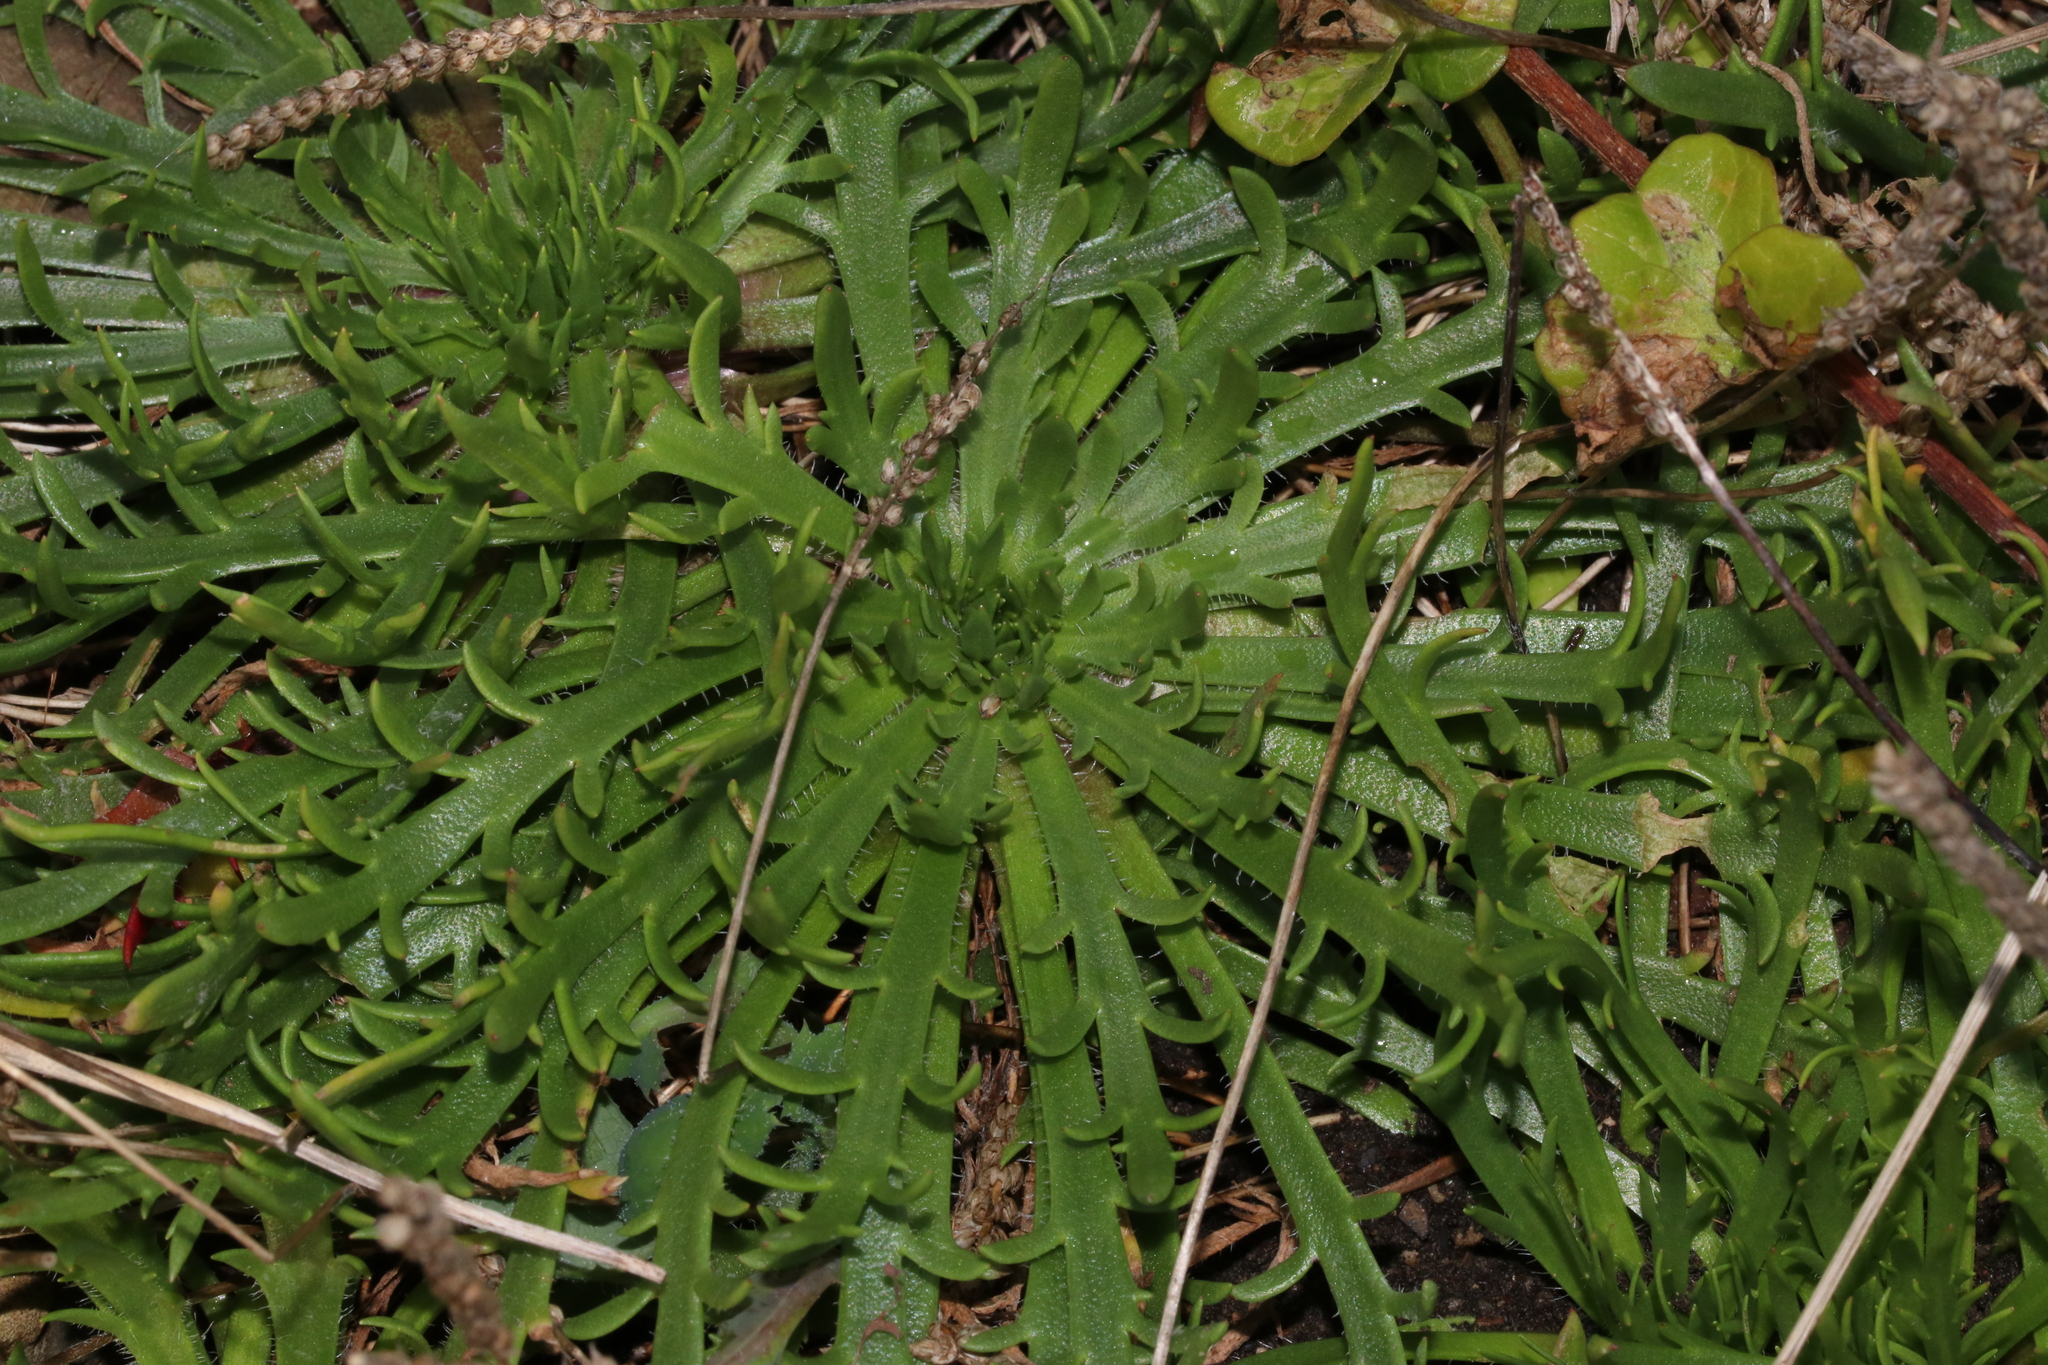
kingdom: Plantae
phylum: Tracheophyta
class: Magnoliopsida
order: Lamiales
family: Plantaginaceae
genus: Plantago
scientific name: Plantago coronopus
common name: Buck's-horn plantain
